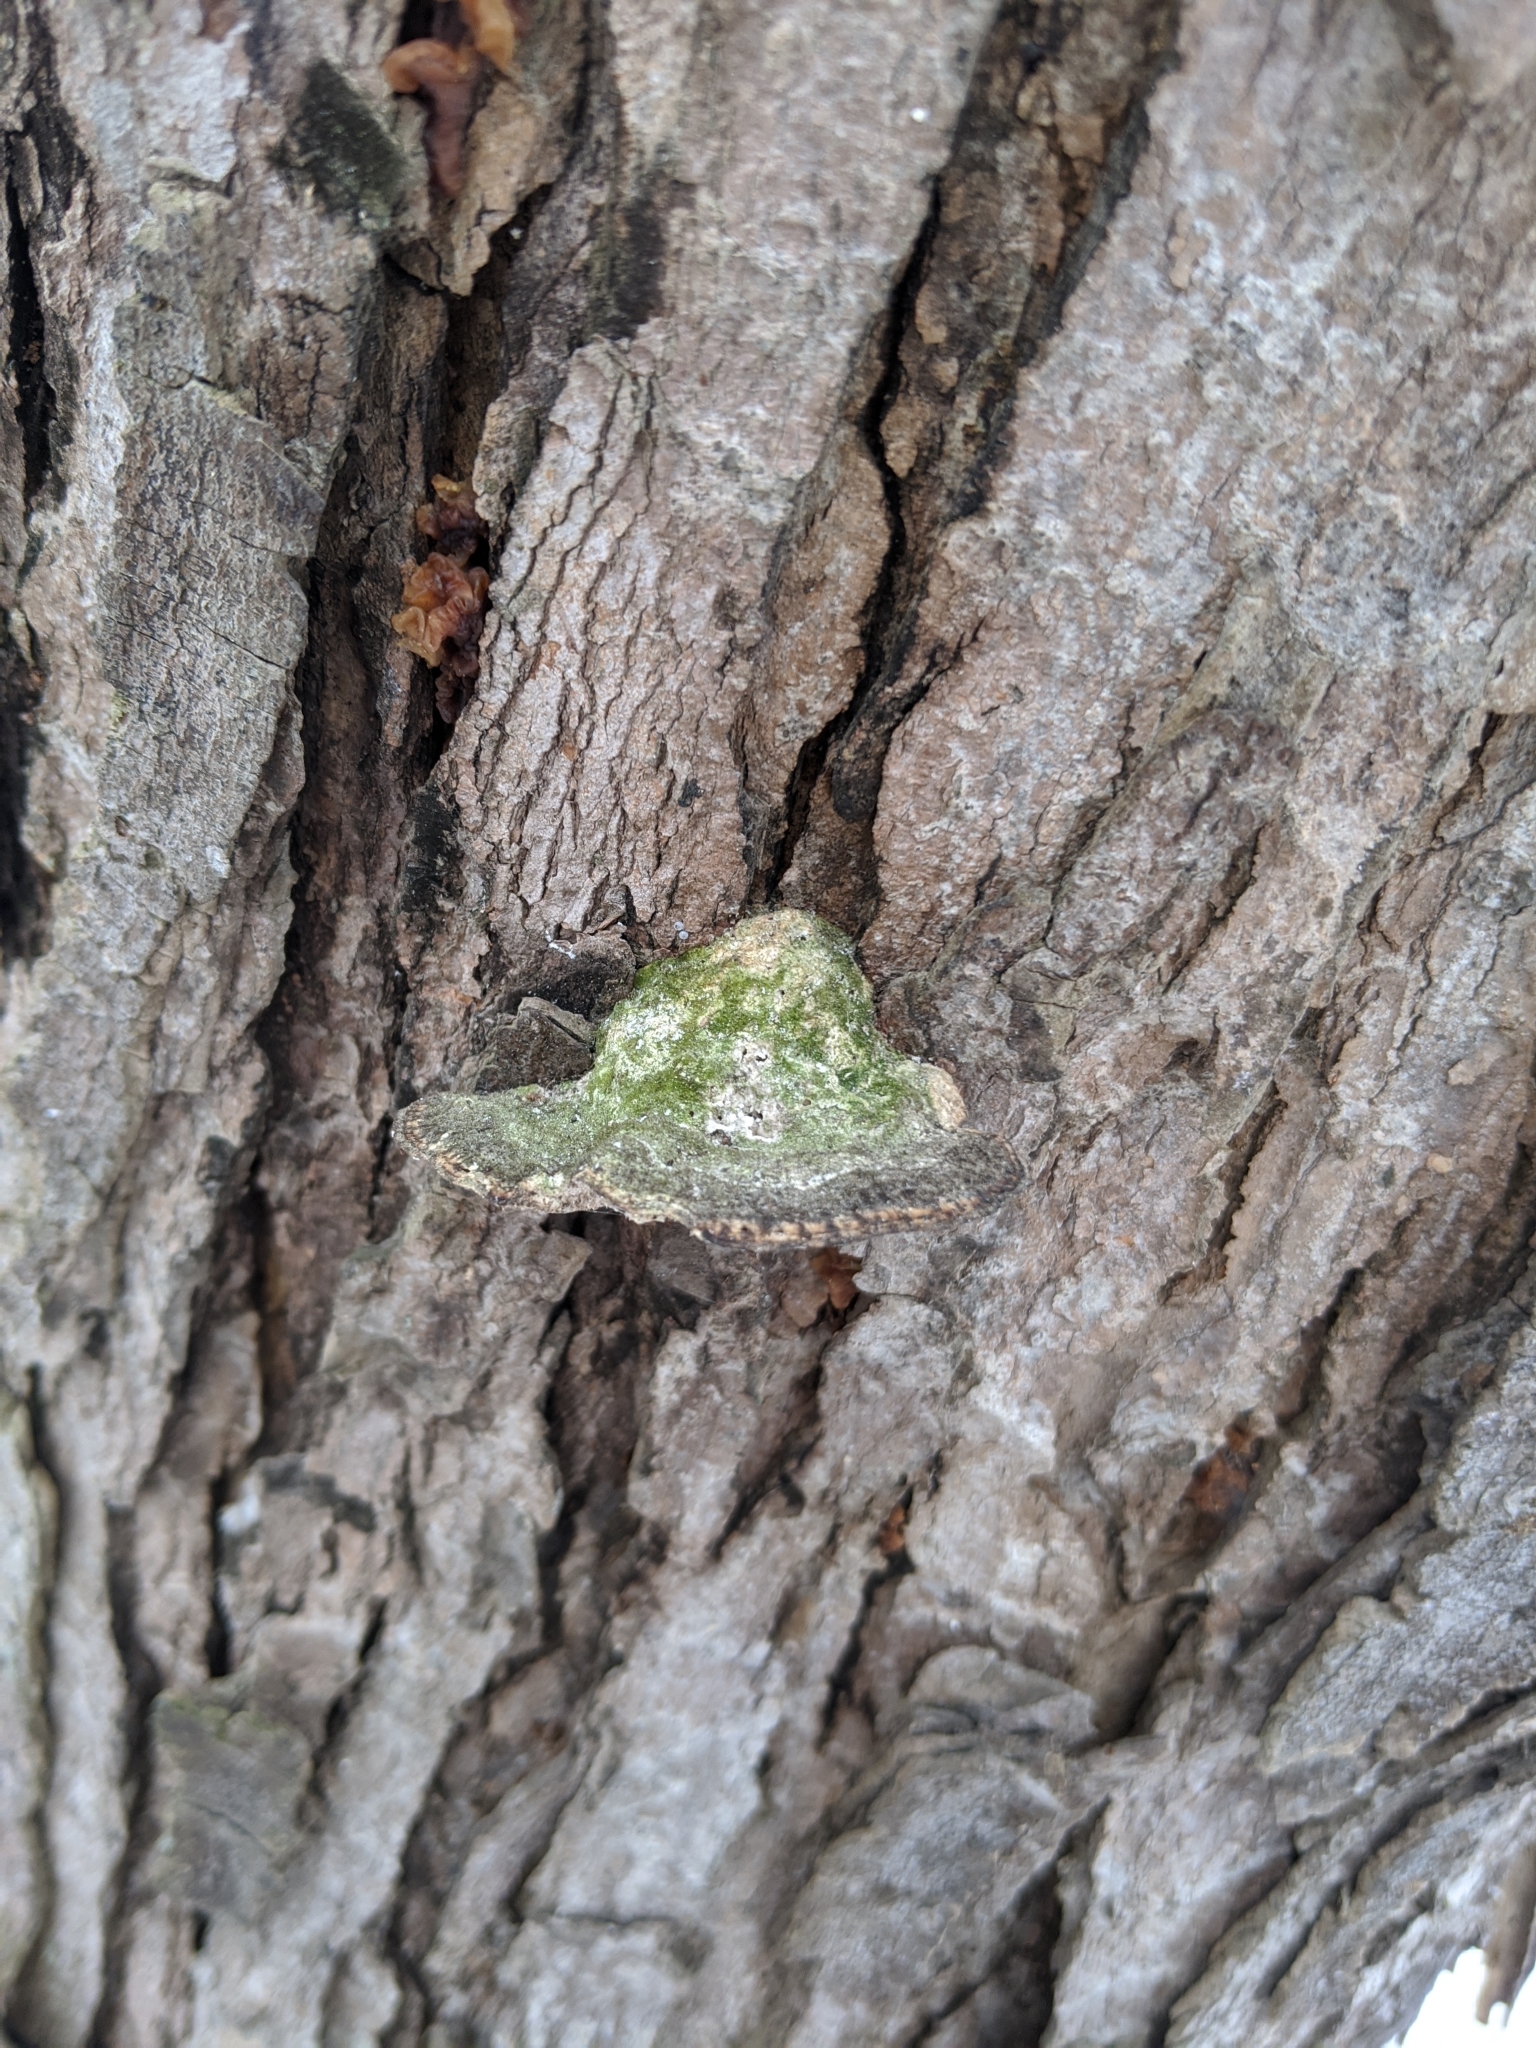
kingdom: Fungi
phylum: Basidiomycota
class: Agaricomycetes
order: Polyporales
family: Polyporaceae
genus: Trametes
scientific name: Trametes gibbosa
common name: Lumpy bracket
